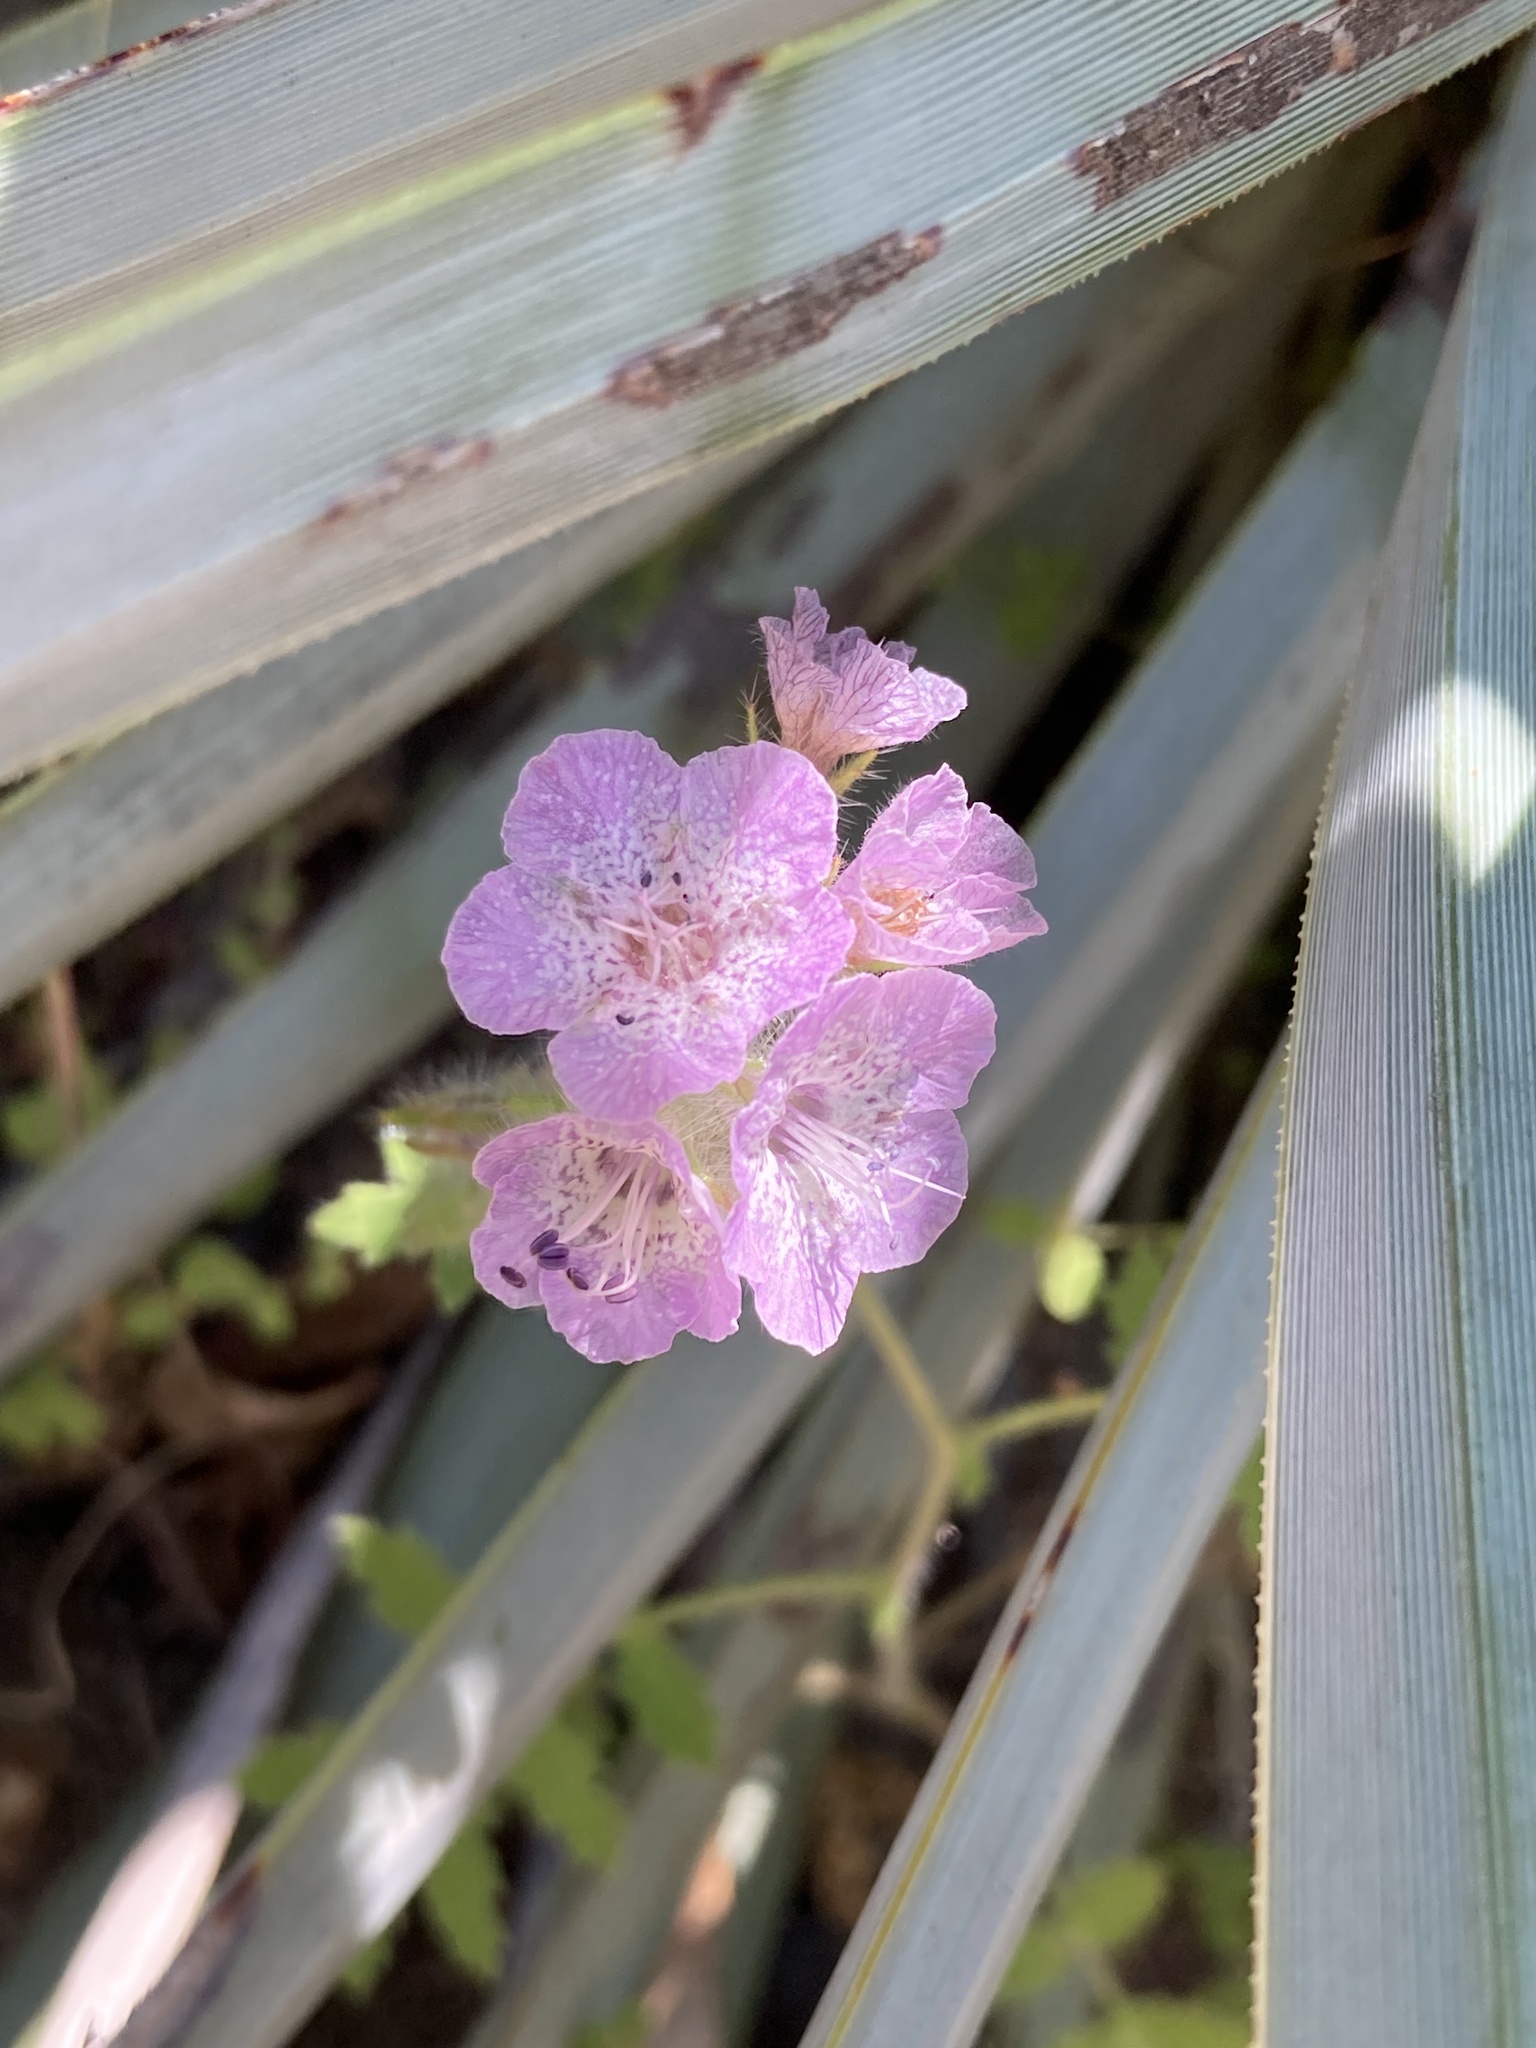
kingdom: Plantae
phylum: Tracheophyta
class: Magnoliopsida
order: Boraginales
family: Hydrophyllaceae
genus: Phacelia
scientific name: Phacelia cicutaria
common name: Caterpillar phacelia
